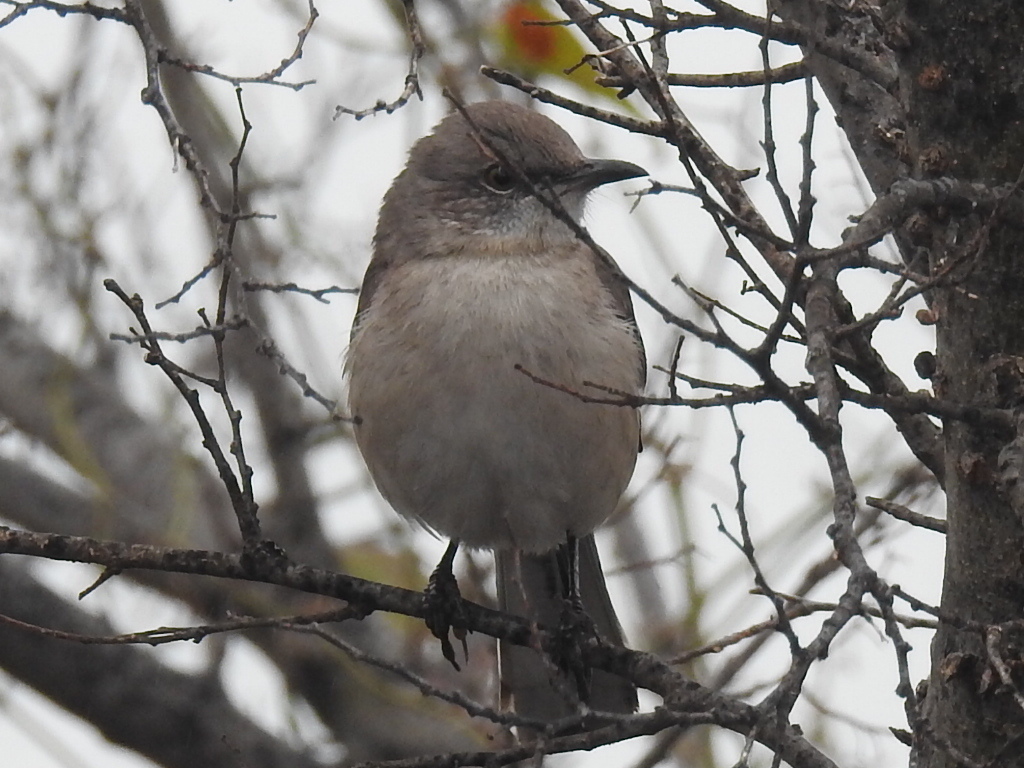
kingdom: Animalia
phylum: Chordata
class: Aves
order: Passeriformes
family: Mimidae
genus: Mimus
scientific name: Mimus polyglottos
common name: Northern mockingbird
